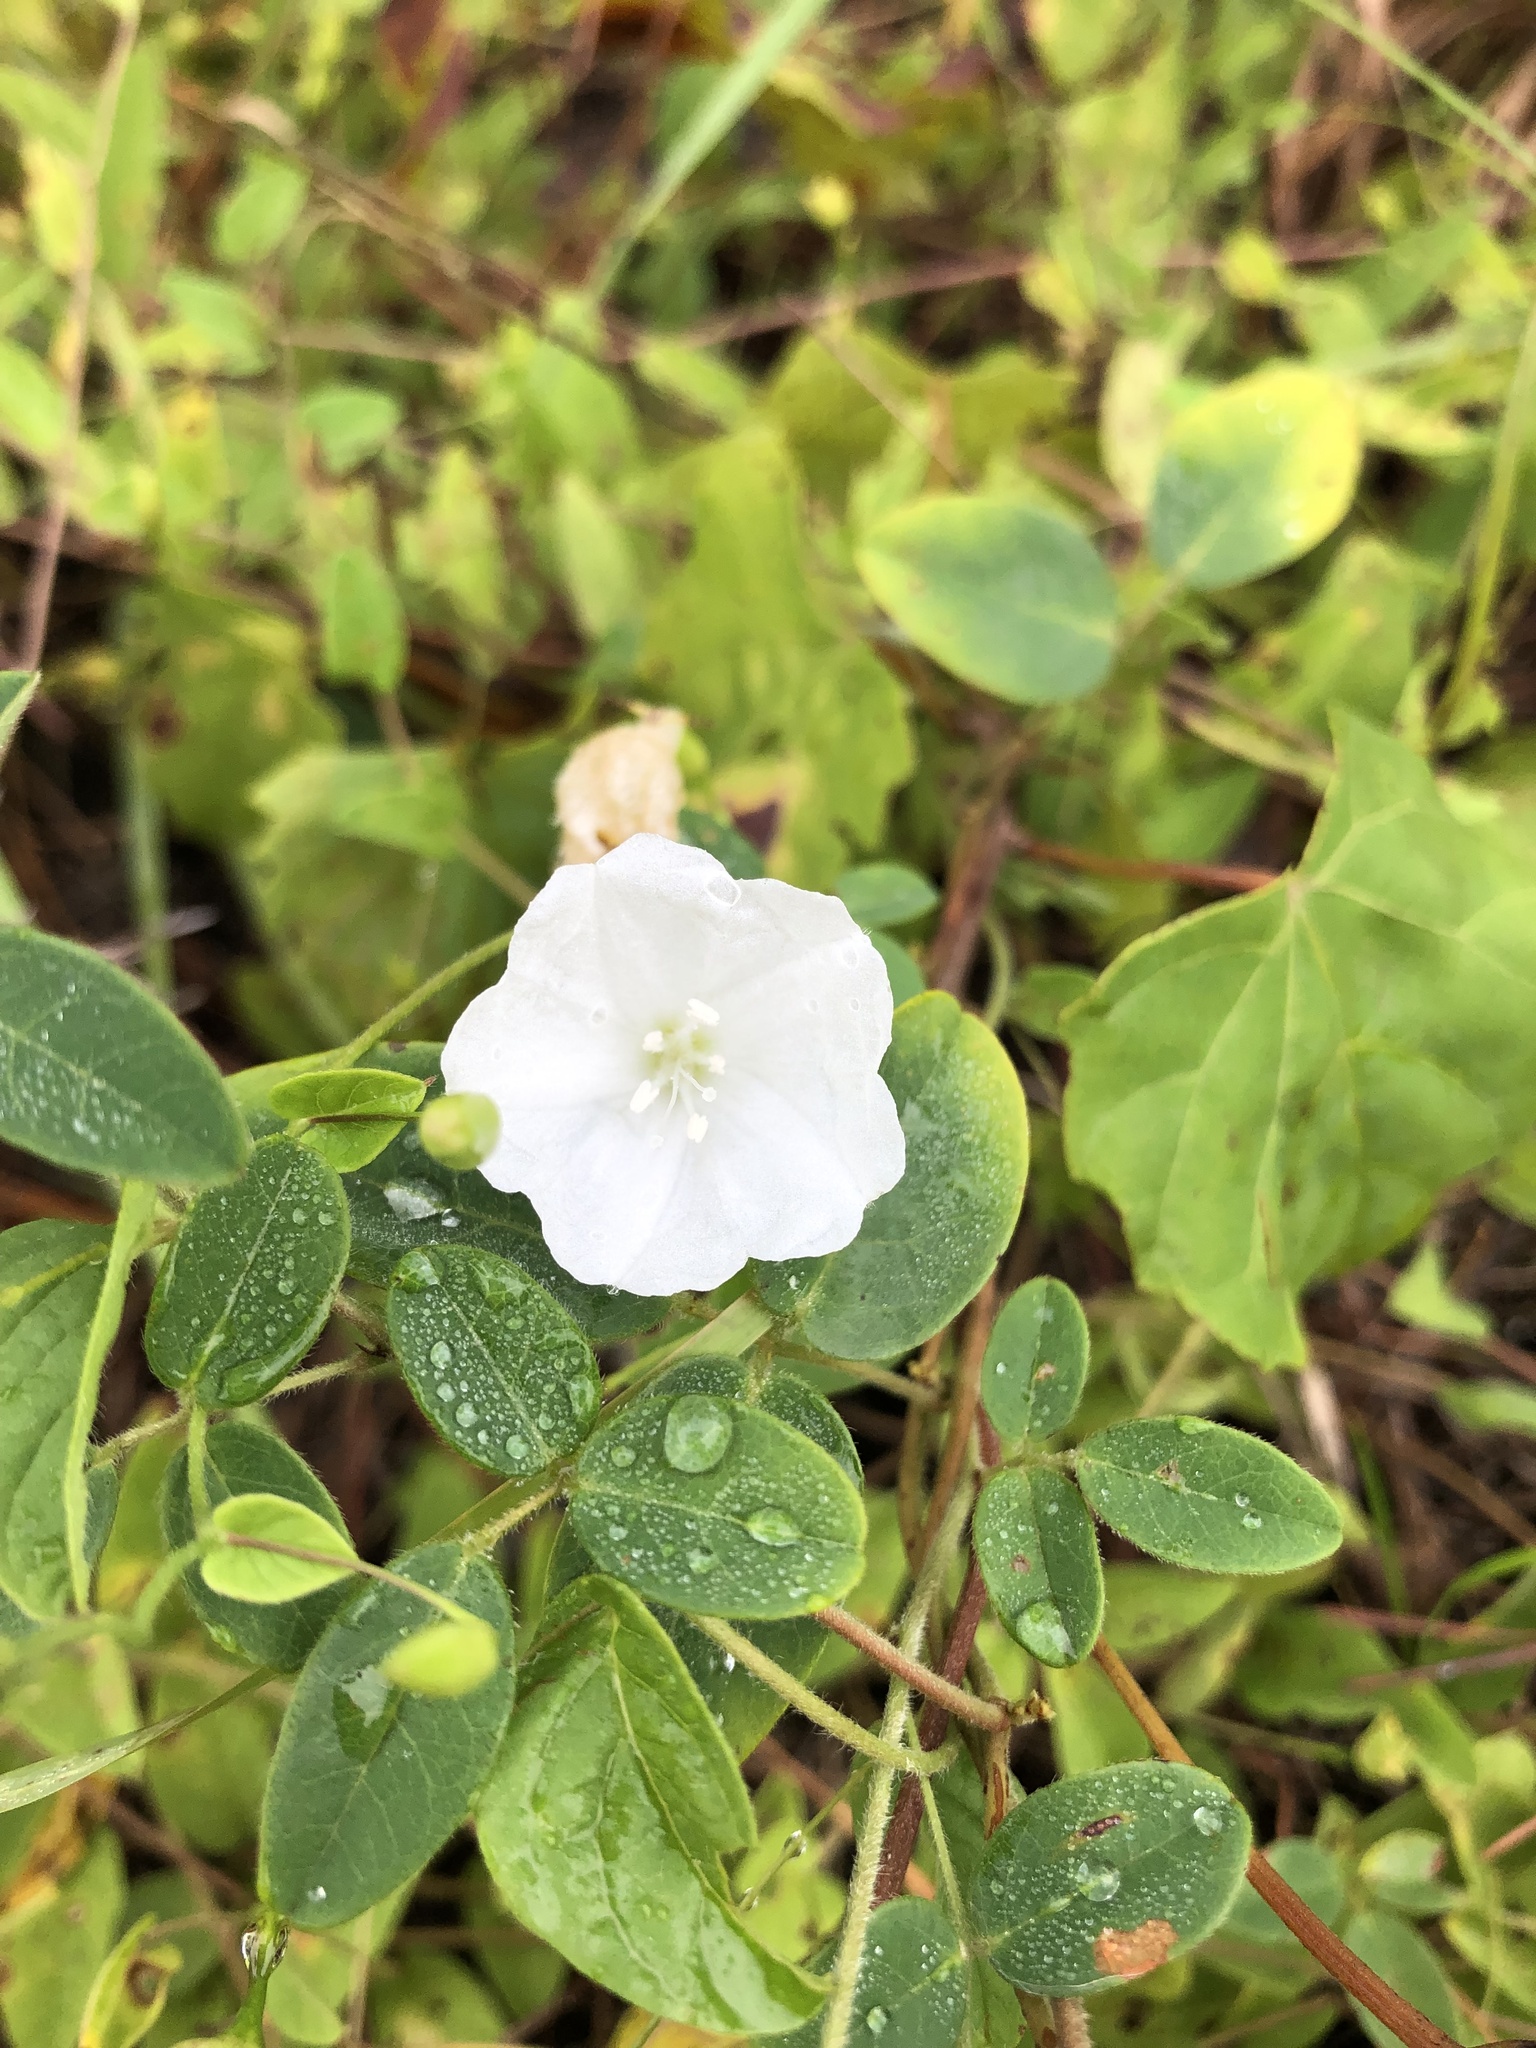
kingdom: Plantae
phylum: Tracheophyta
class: Magnoliopsida
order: Solanales
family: Convolvulaceae
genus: Stylisma
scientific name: Stylisma humistrata
